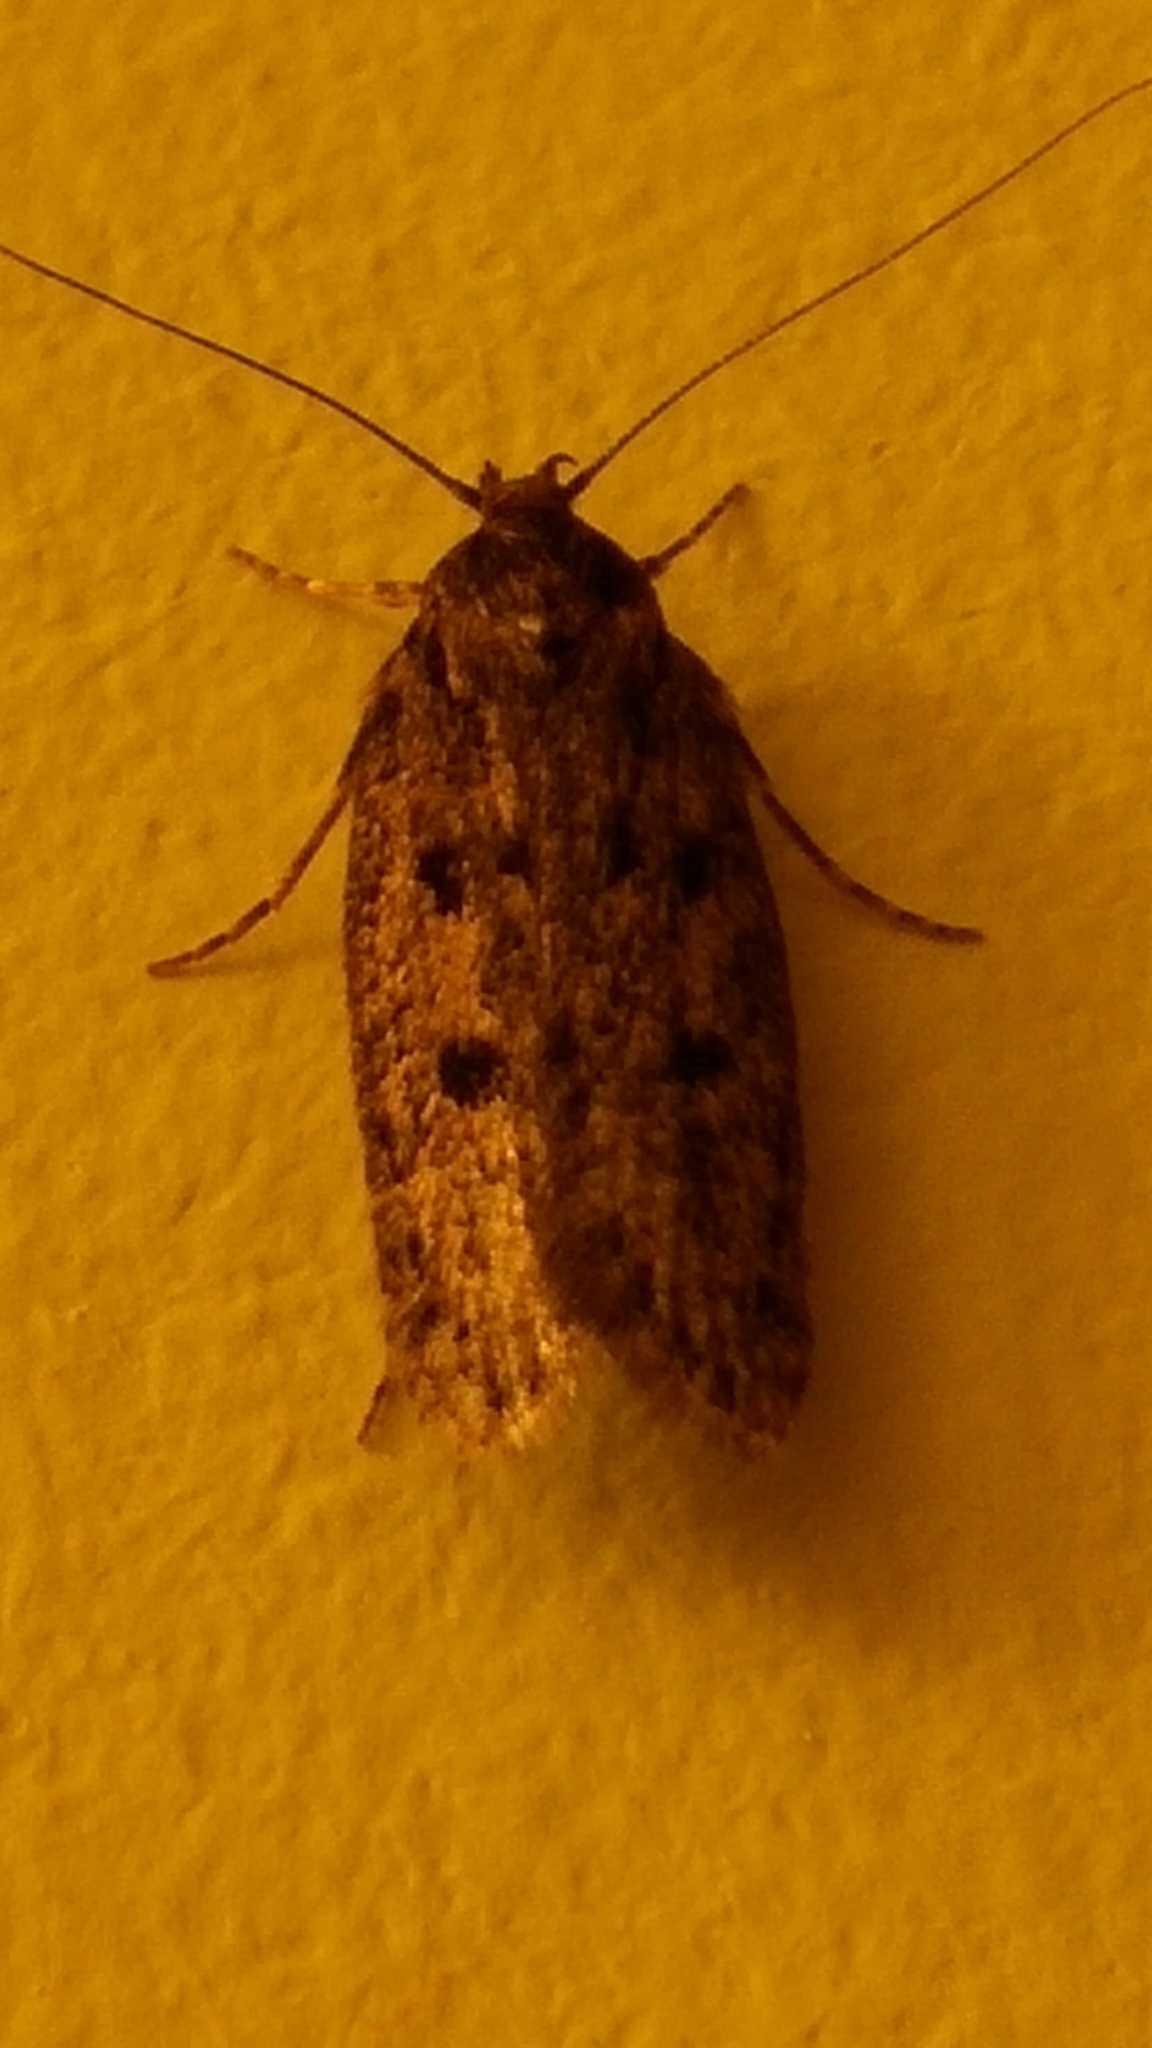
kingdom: Animalia
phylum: Arthropoda
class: Insecta
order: Lepidoptera
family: Oecophoridae
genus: Hofmannophila
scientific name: Hofmannophila pseudospretella
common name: Brown house moth
